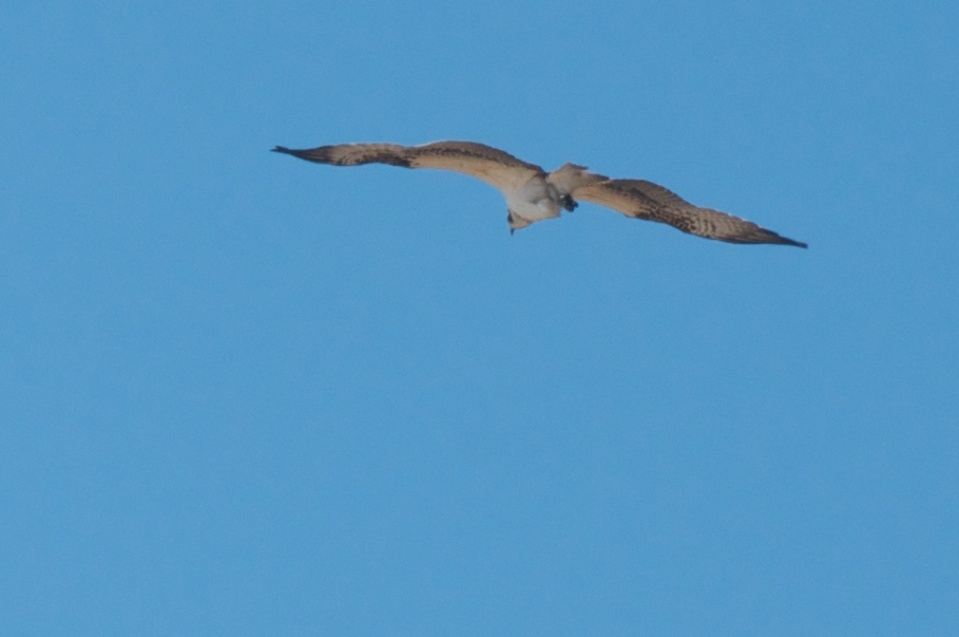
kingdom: Animalia
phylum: Chordata
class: Aves
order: Accipitriformes
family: Pandionidae
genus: Pandion
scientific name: Pandion haliaetus
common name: Osprey
